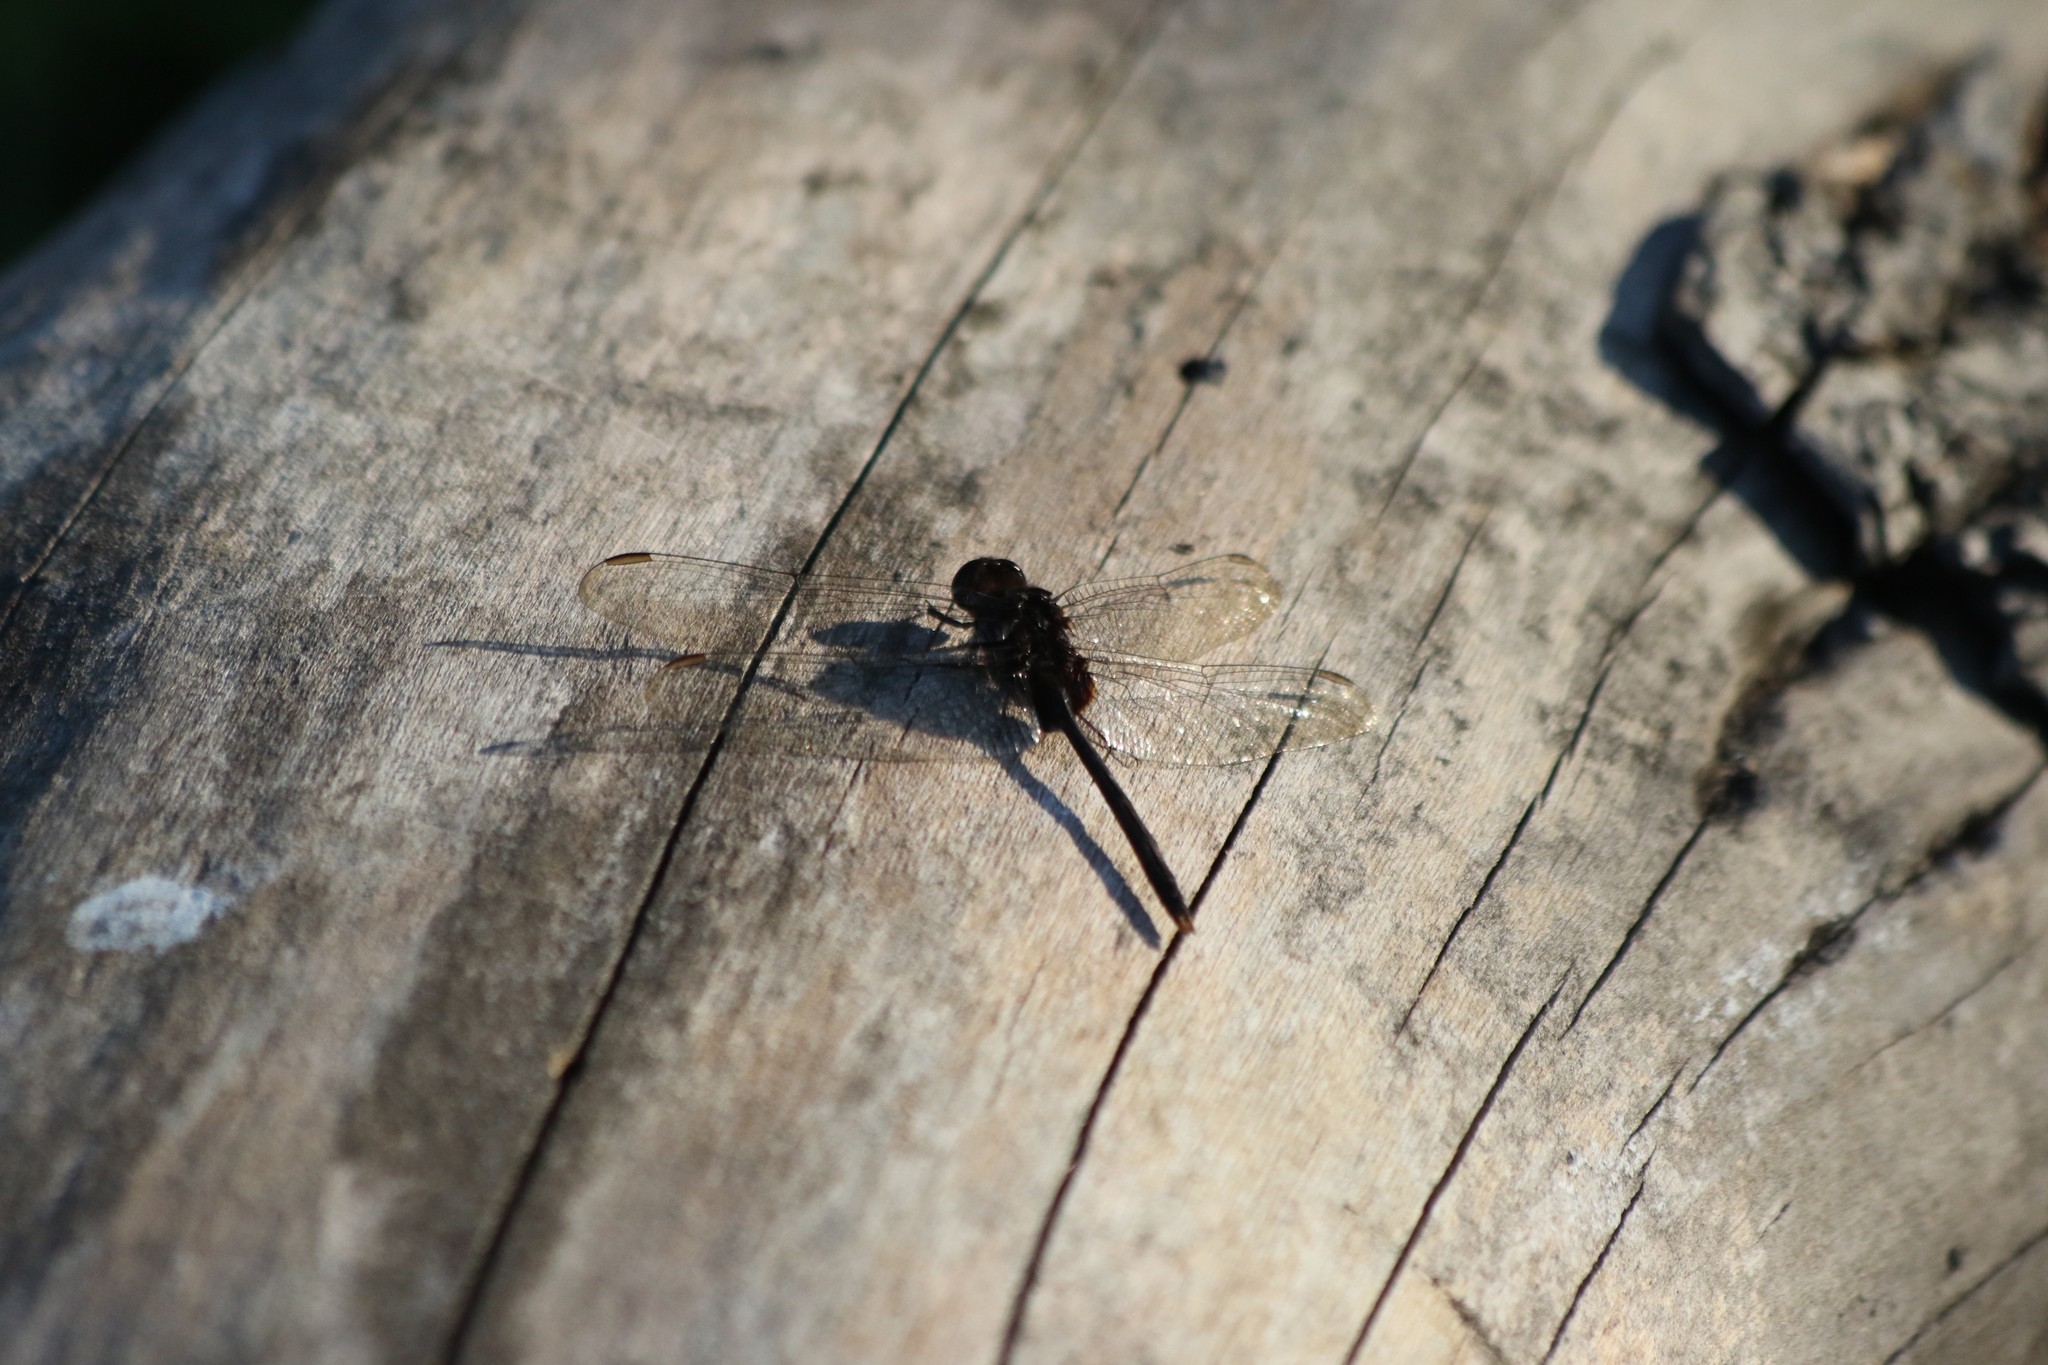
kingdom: Animalia
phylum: Arthropoda
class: Insecta
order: Odonata
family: Libellulidae
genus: Erythemis
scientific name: Erythemis plebeja
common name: Pin-tailed pondhawk
